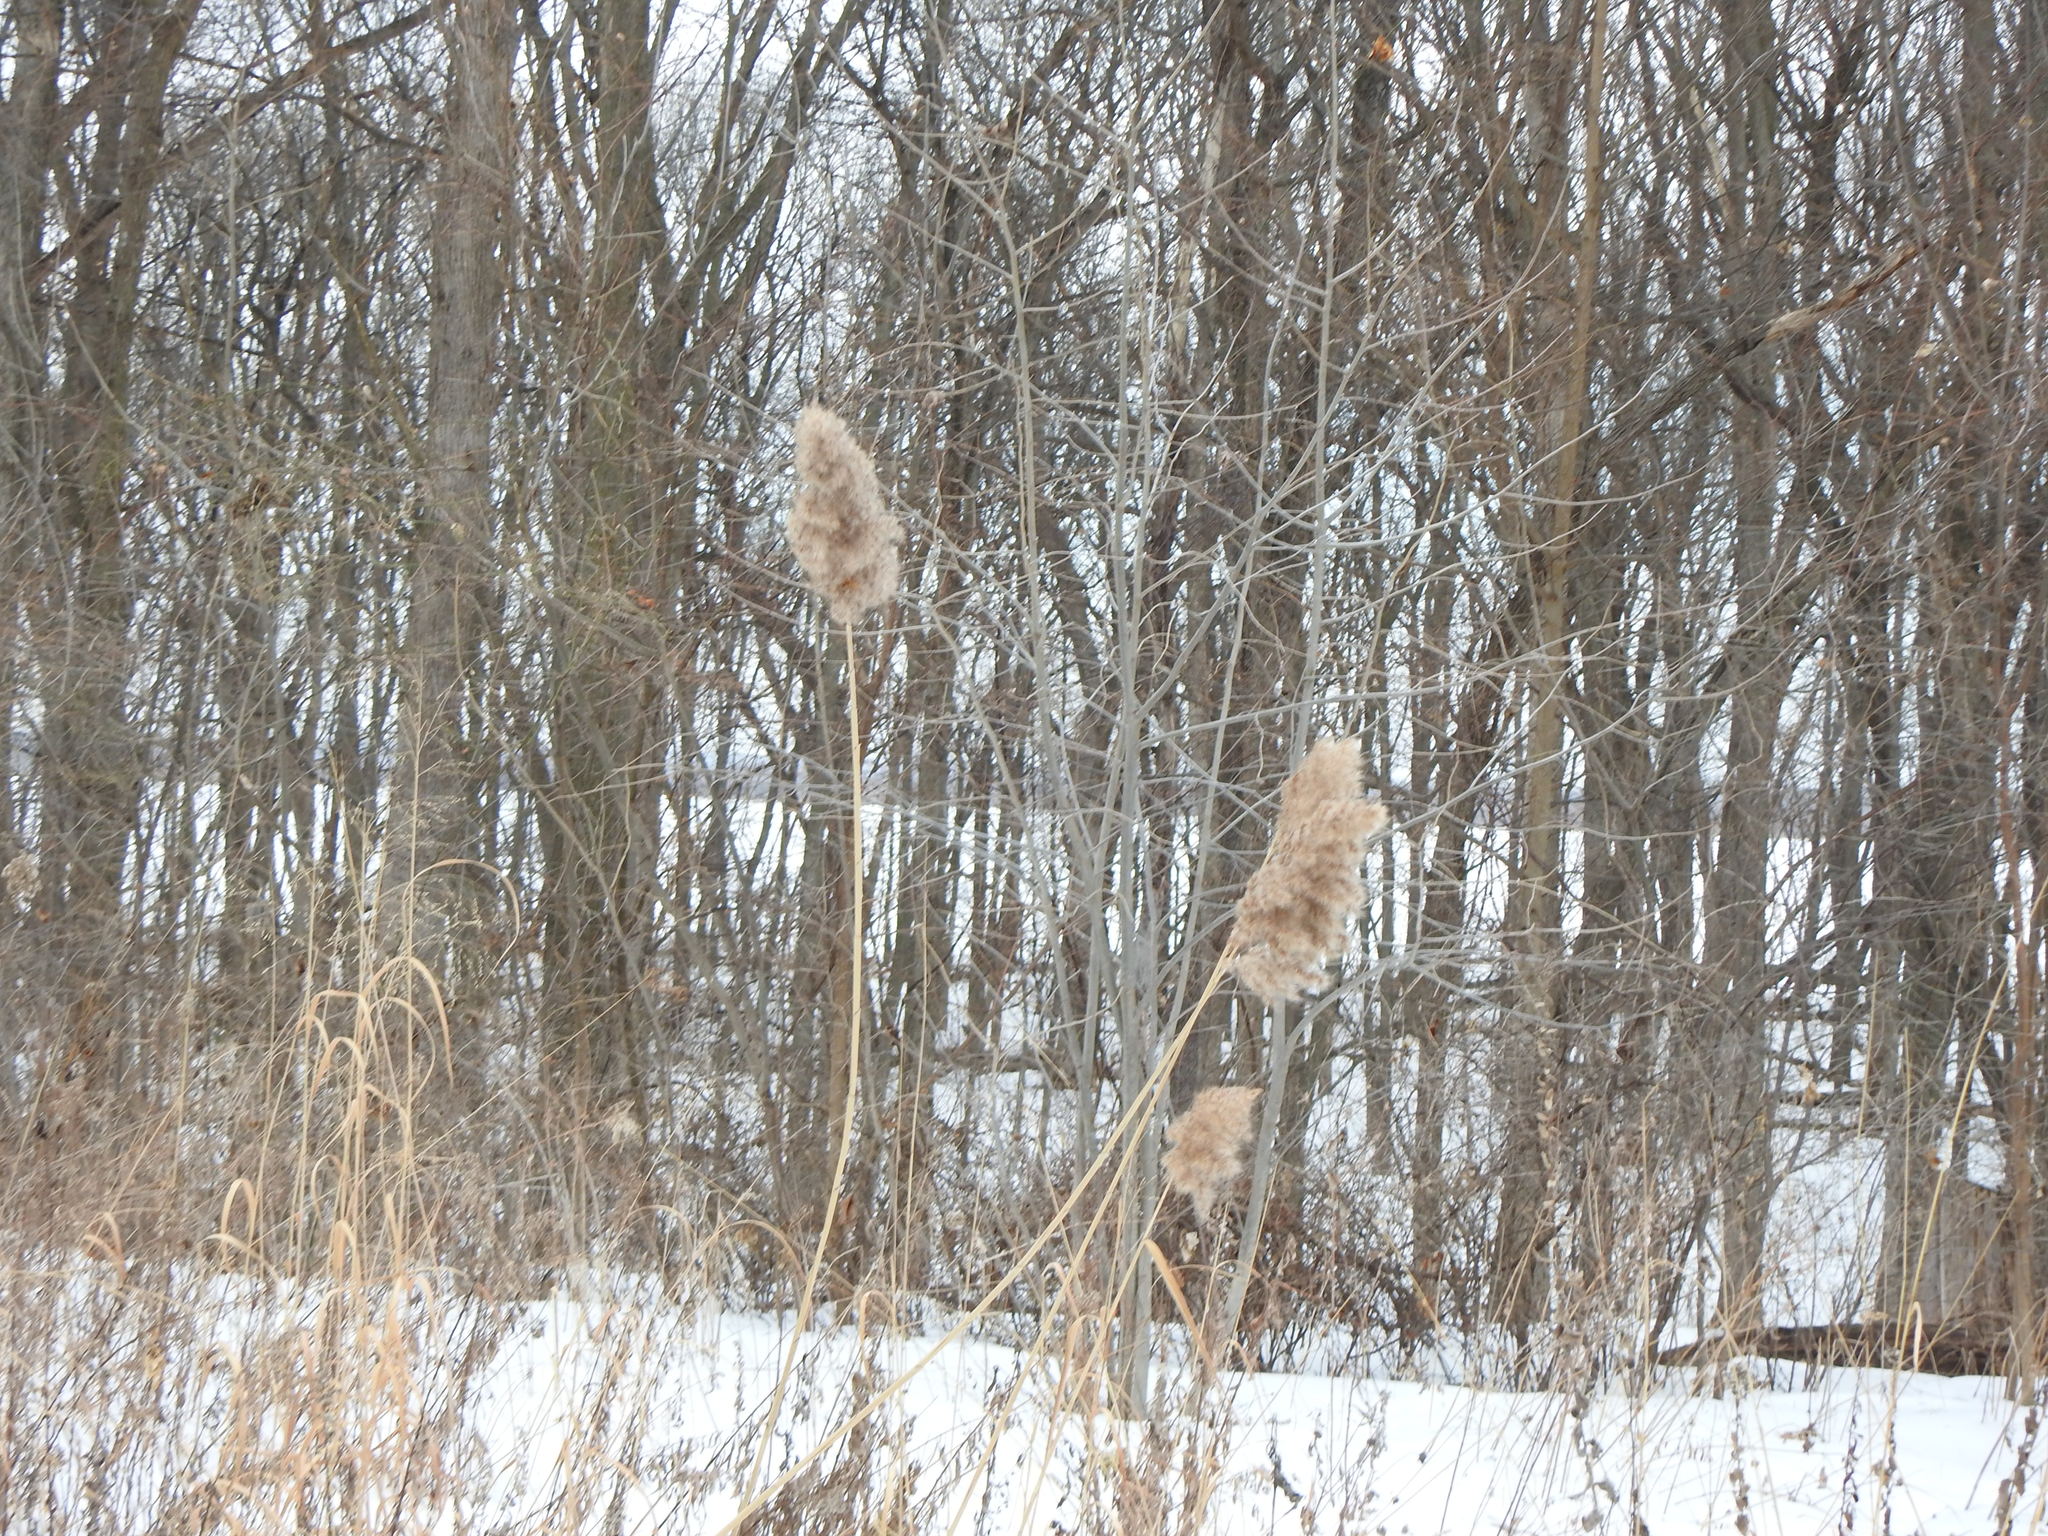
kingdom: Plantae
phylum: Tracheophyta
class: Liliopsida
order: Poales
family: Poaceae
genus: Phragmites
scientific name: Phragmites australis
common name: Common reed
